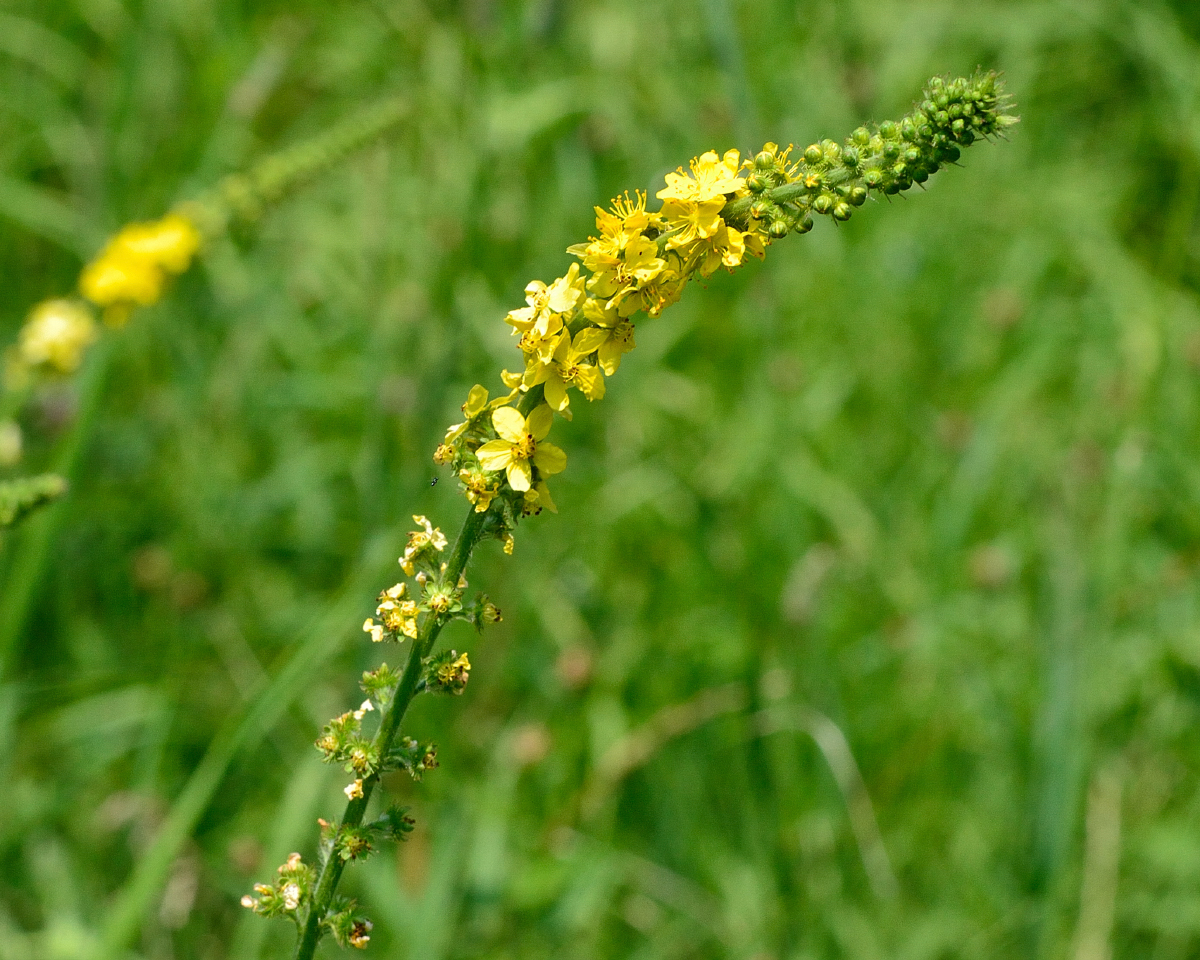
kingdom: Plantae
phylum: Tracheophyta
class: Magnoliopsida
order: Rosales
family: Rosaceae
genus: Agrimonia
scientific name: Agrimonia eupatoria
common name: Agrimony
